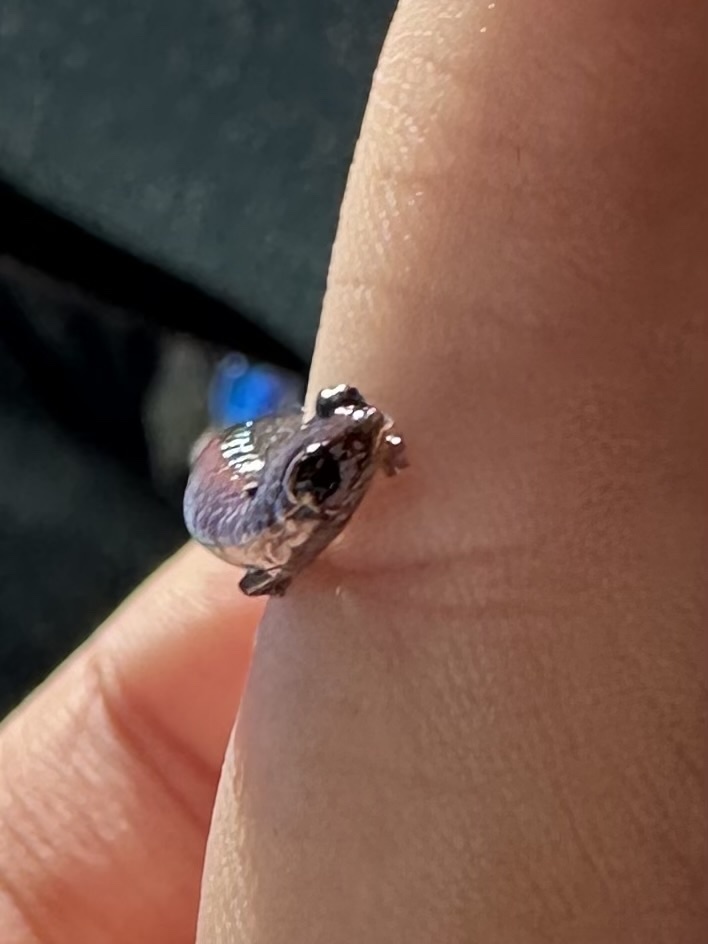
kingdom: Animalia
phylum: Chordata
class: Amphibia
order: Caudata
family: Plethodontidae
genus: Batrachoseps
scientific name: Batrachoseps nigriventris
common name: Black-bellied slender salamander
